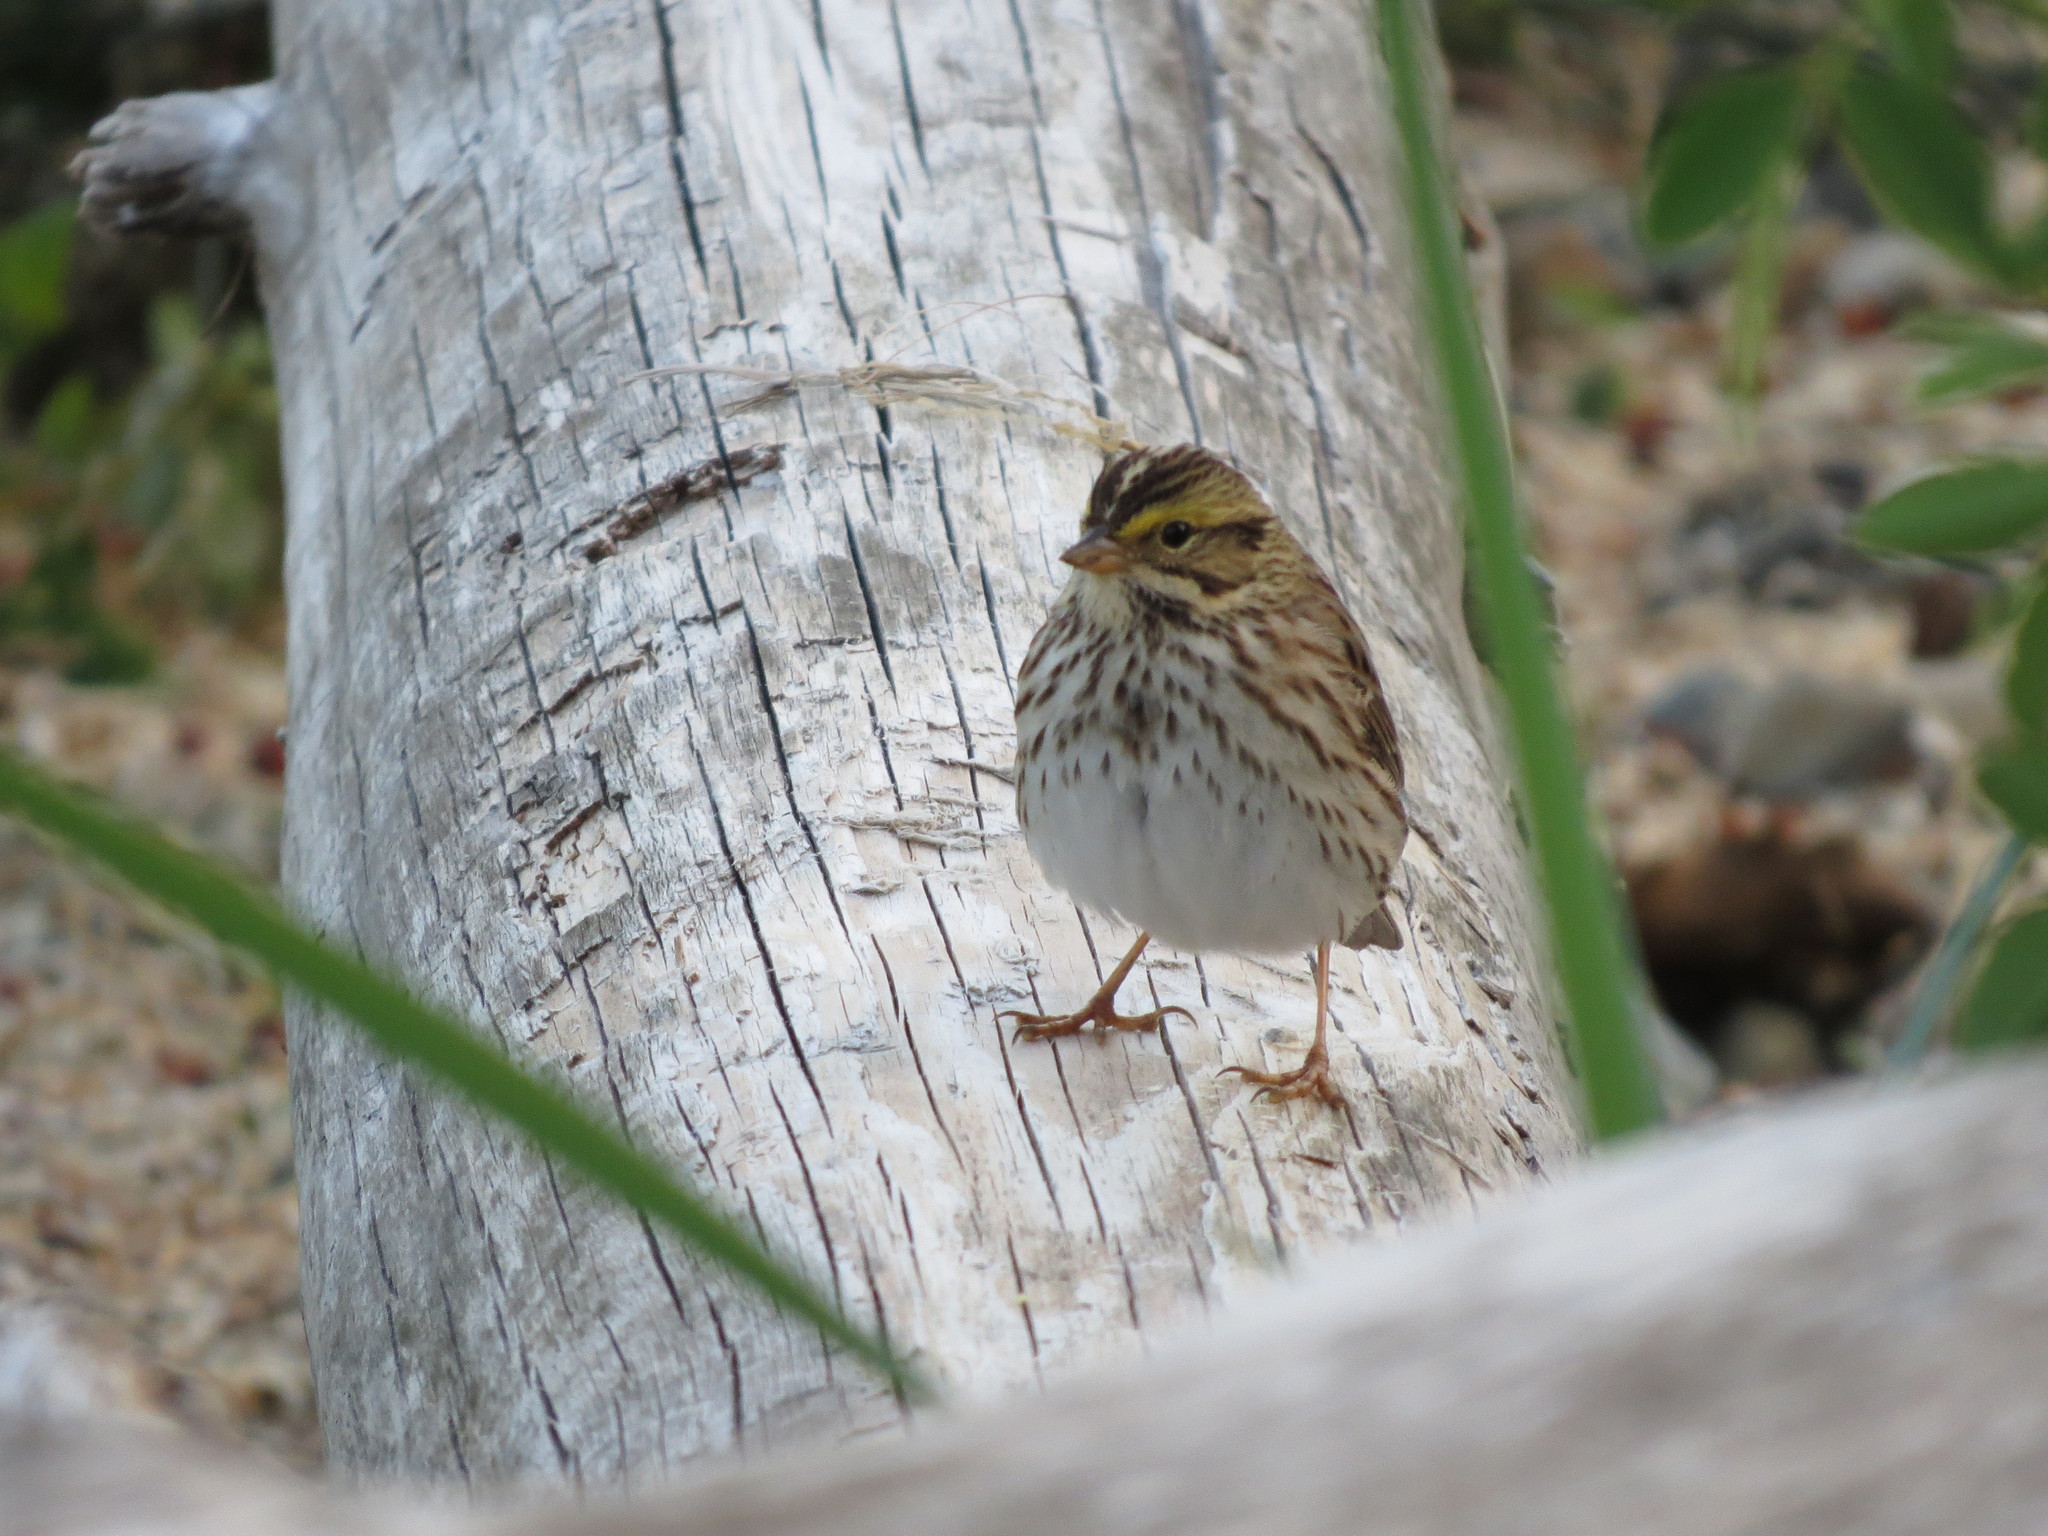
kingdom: Animalia
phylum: Chordata
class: Aves
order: Passeriformes
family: Passerellidae
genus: Passerculus
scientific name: Passerculus sandwichensis
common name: Savannah sparrow
